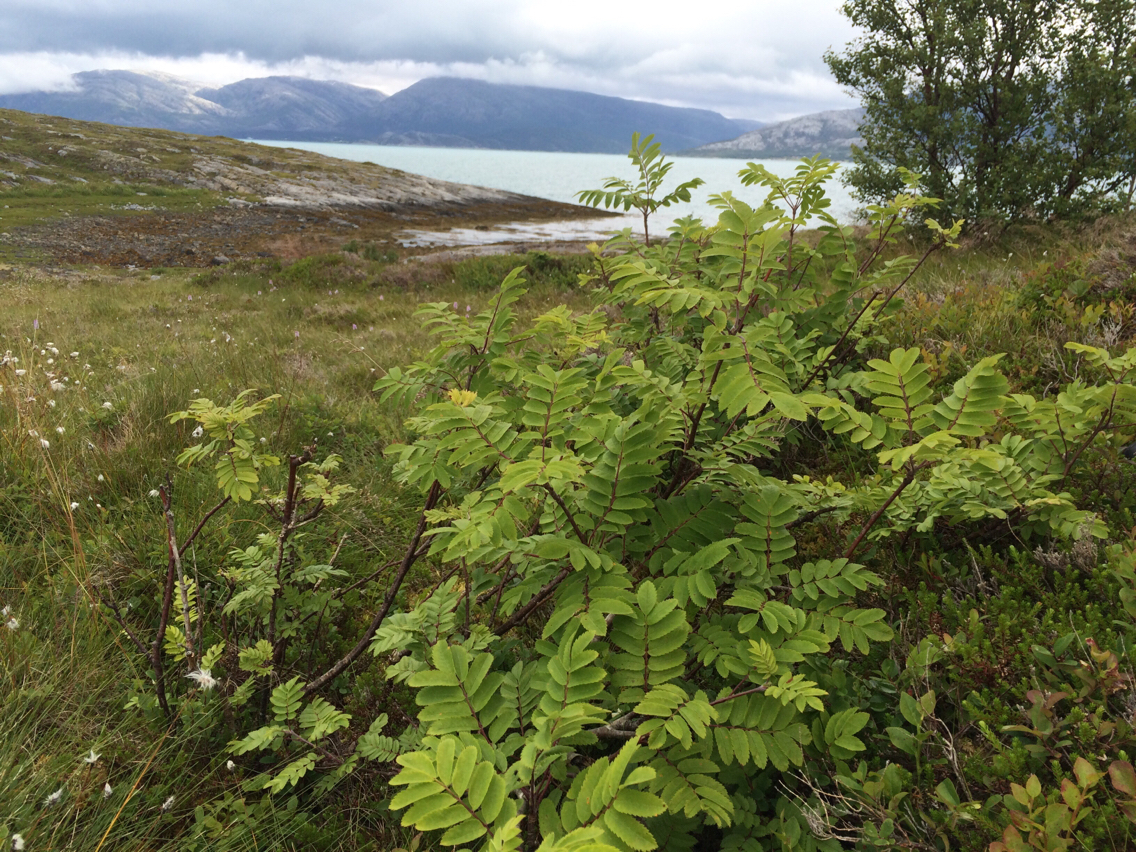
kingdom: Plantae
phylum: Tracheophyta
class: Magnoliopsida
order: Rosales
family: Rosaceae
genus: Sorbus
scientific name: Sorbus aucuparia
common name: Rowan
